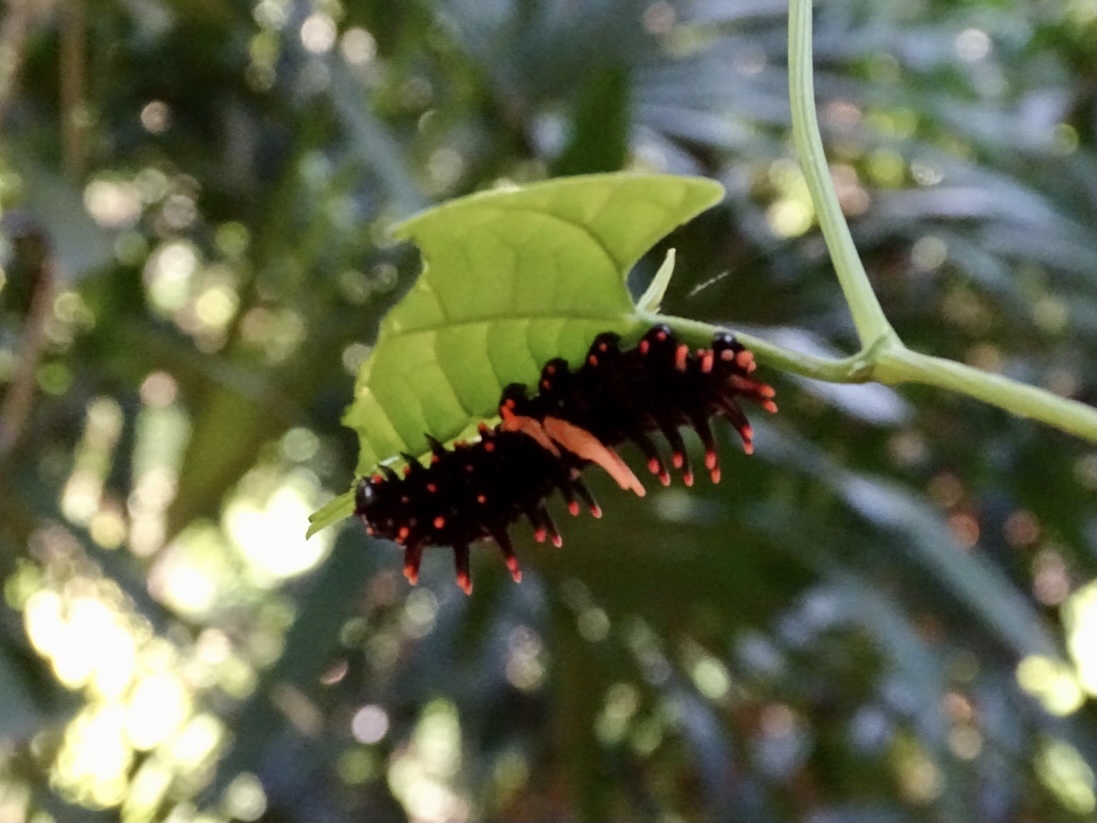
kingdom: Animalia
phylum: Arthropoda
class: Insecta
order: Lepidoptera
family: Papilionidae
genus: Pachliopta
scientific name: Pachliopta aristolochiae
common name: Common rose
